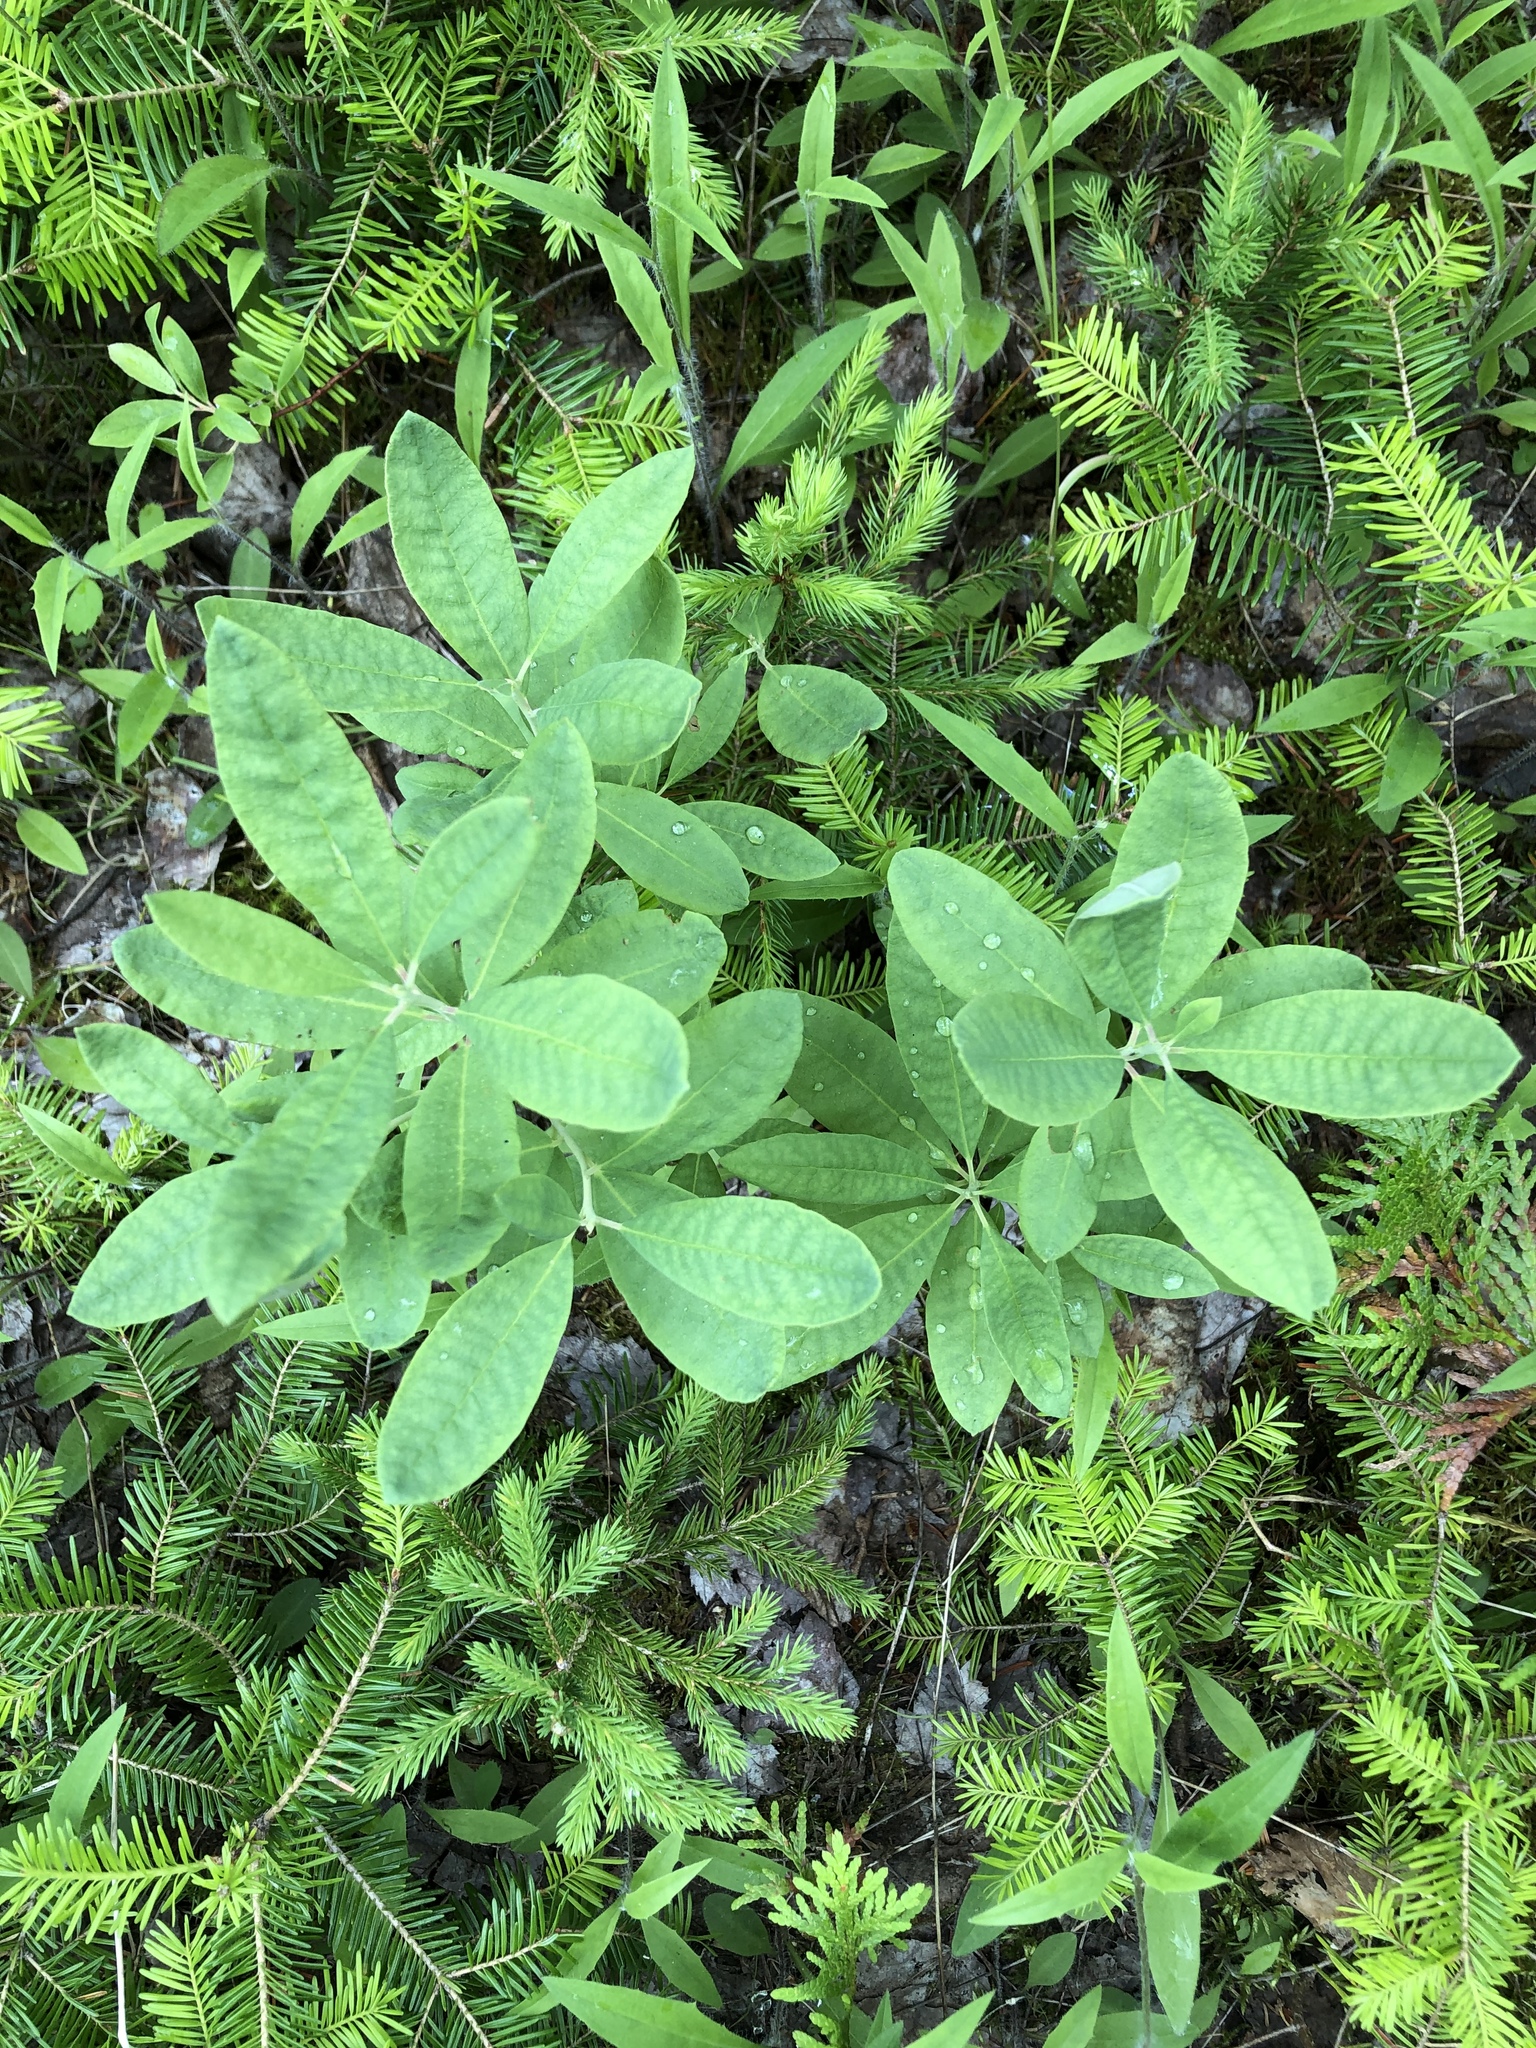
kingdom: Plantae
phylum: Tracheophyta
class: Magnoliopsida
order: Ericales
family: Ericaceae
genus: Rhododendron
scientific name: Rhododendron canadense
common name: Rhodora
